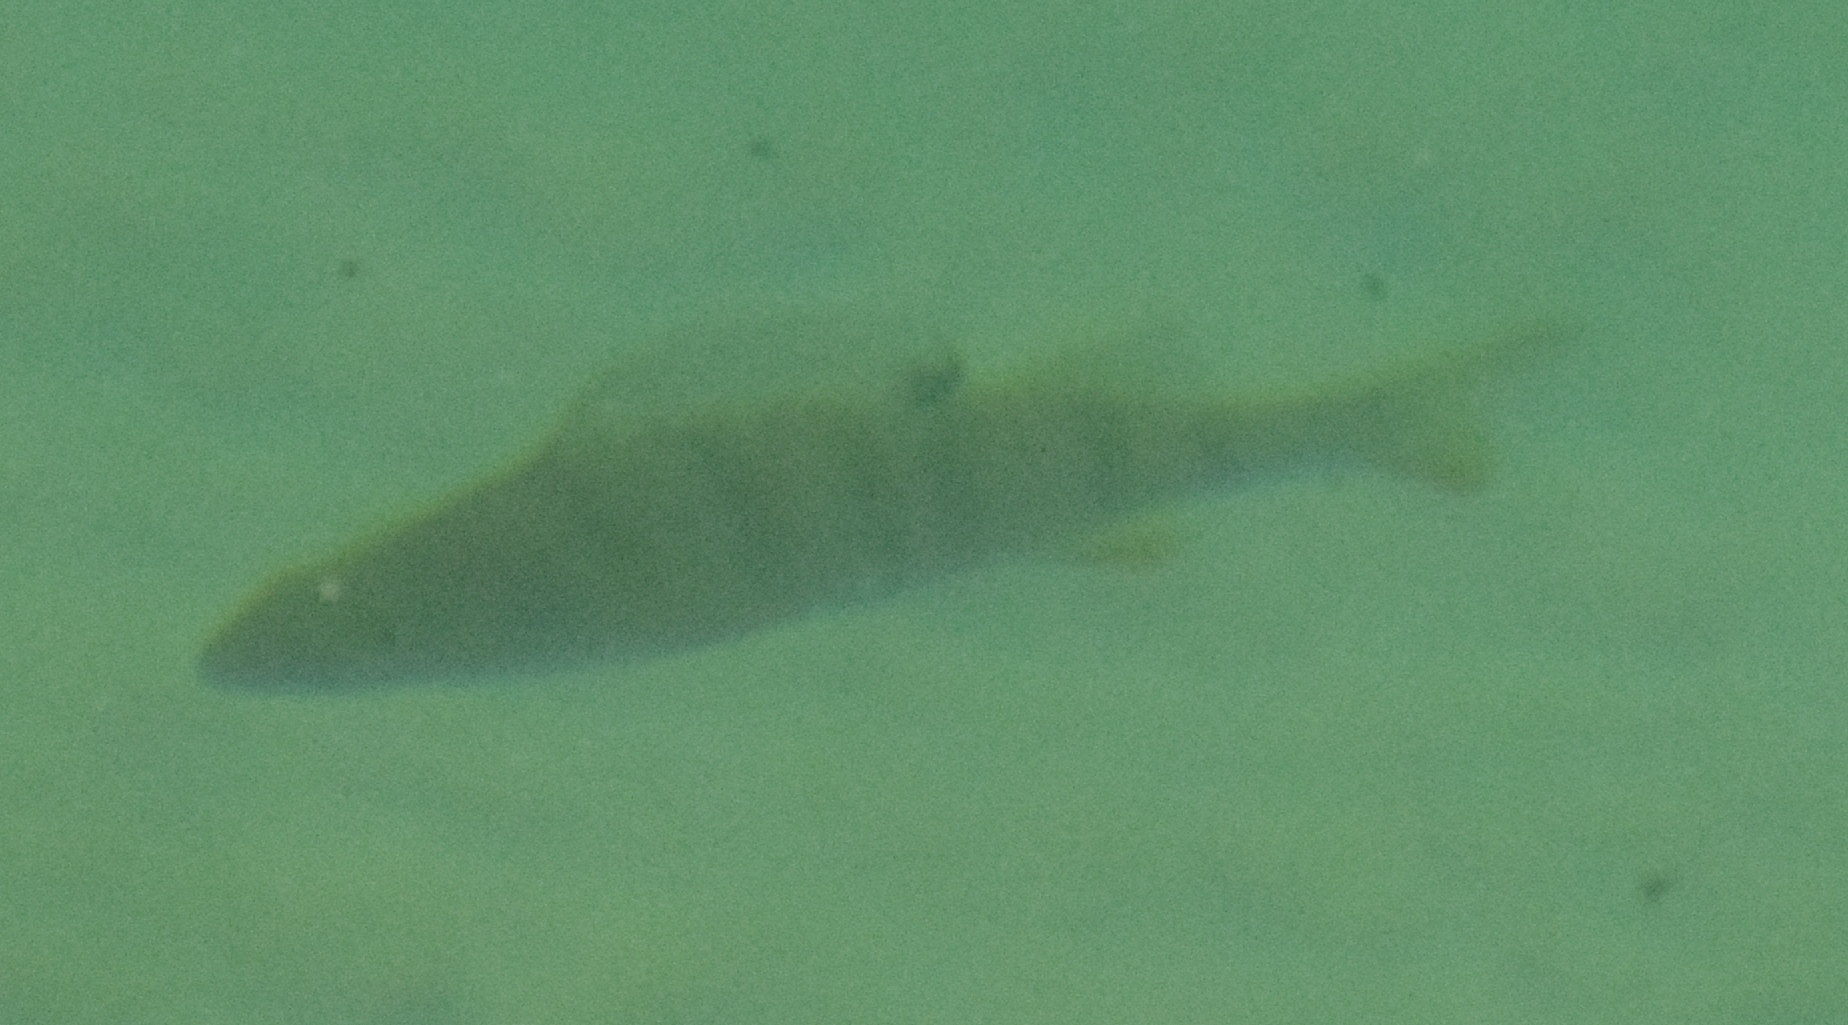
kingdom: Animalia
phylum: Chordata
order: Perciformes
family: Percidae
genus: Perca
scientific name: Perca fluviatilis
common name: Perch
